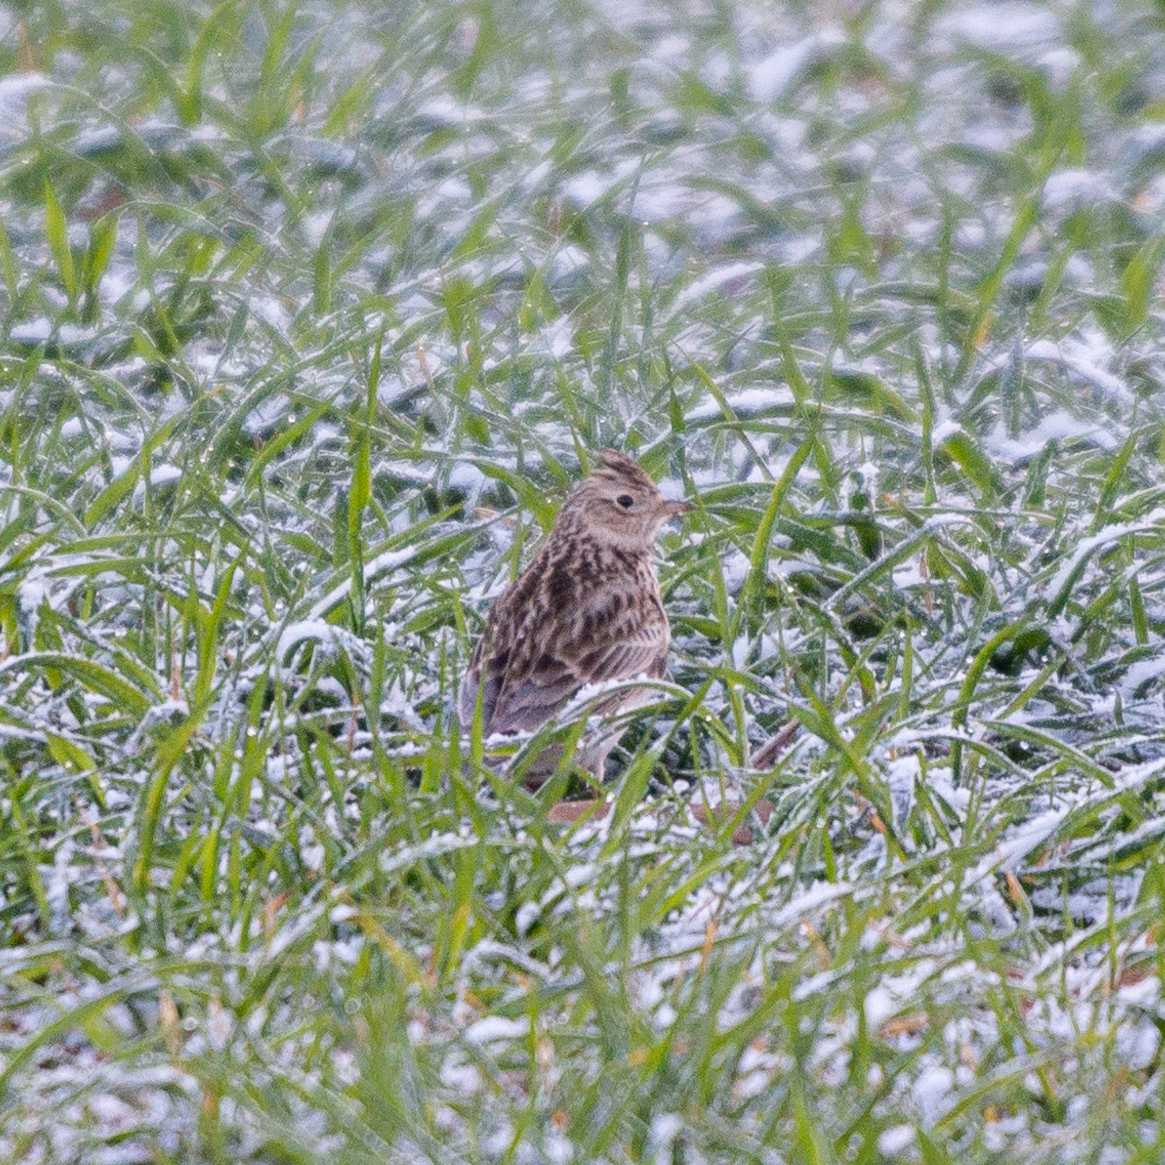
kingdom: Animalia
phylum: Chordata
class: Aves
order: Passeriformes
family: Alaudidae
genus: Alauda
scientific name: Alauda arvensis
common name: Eurasian skylark
